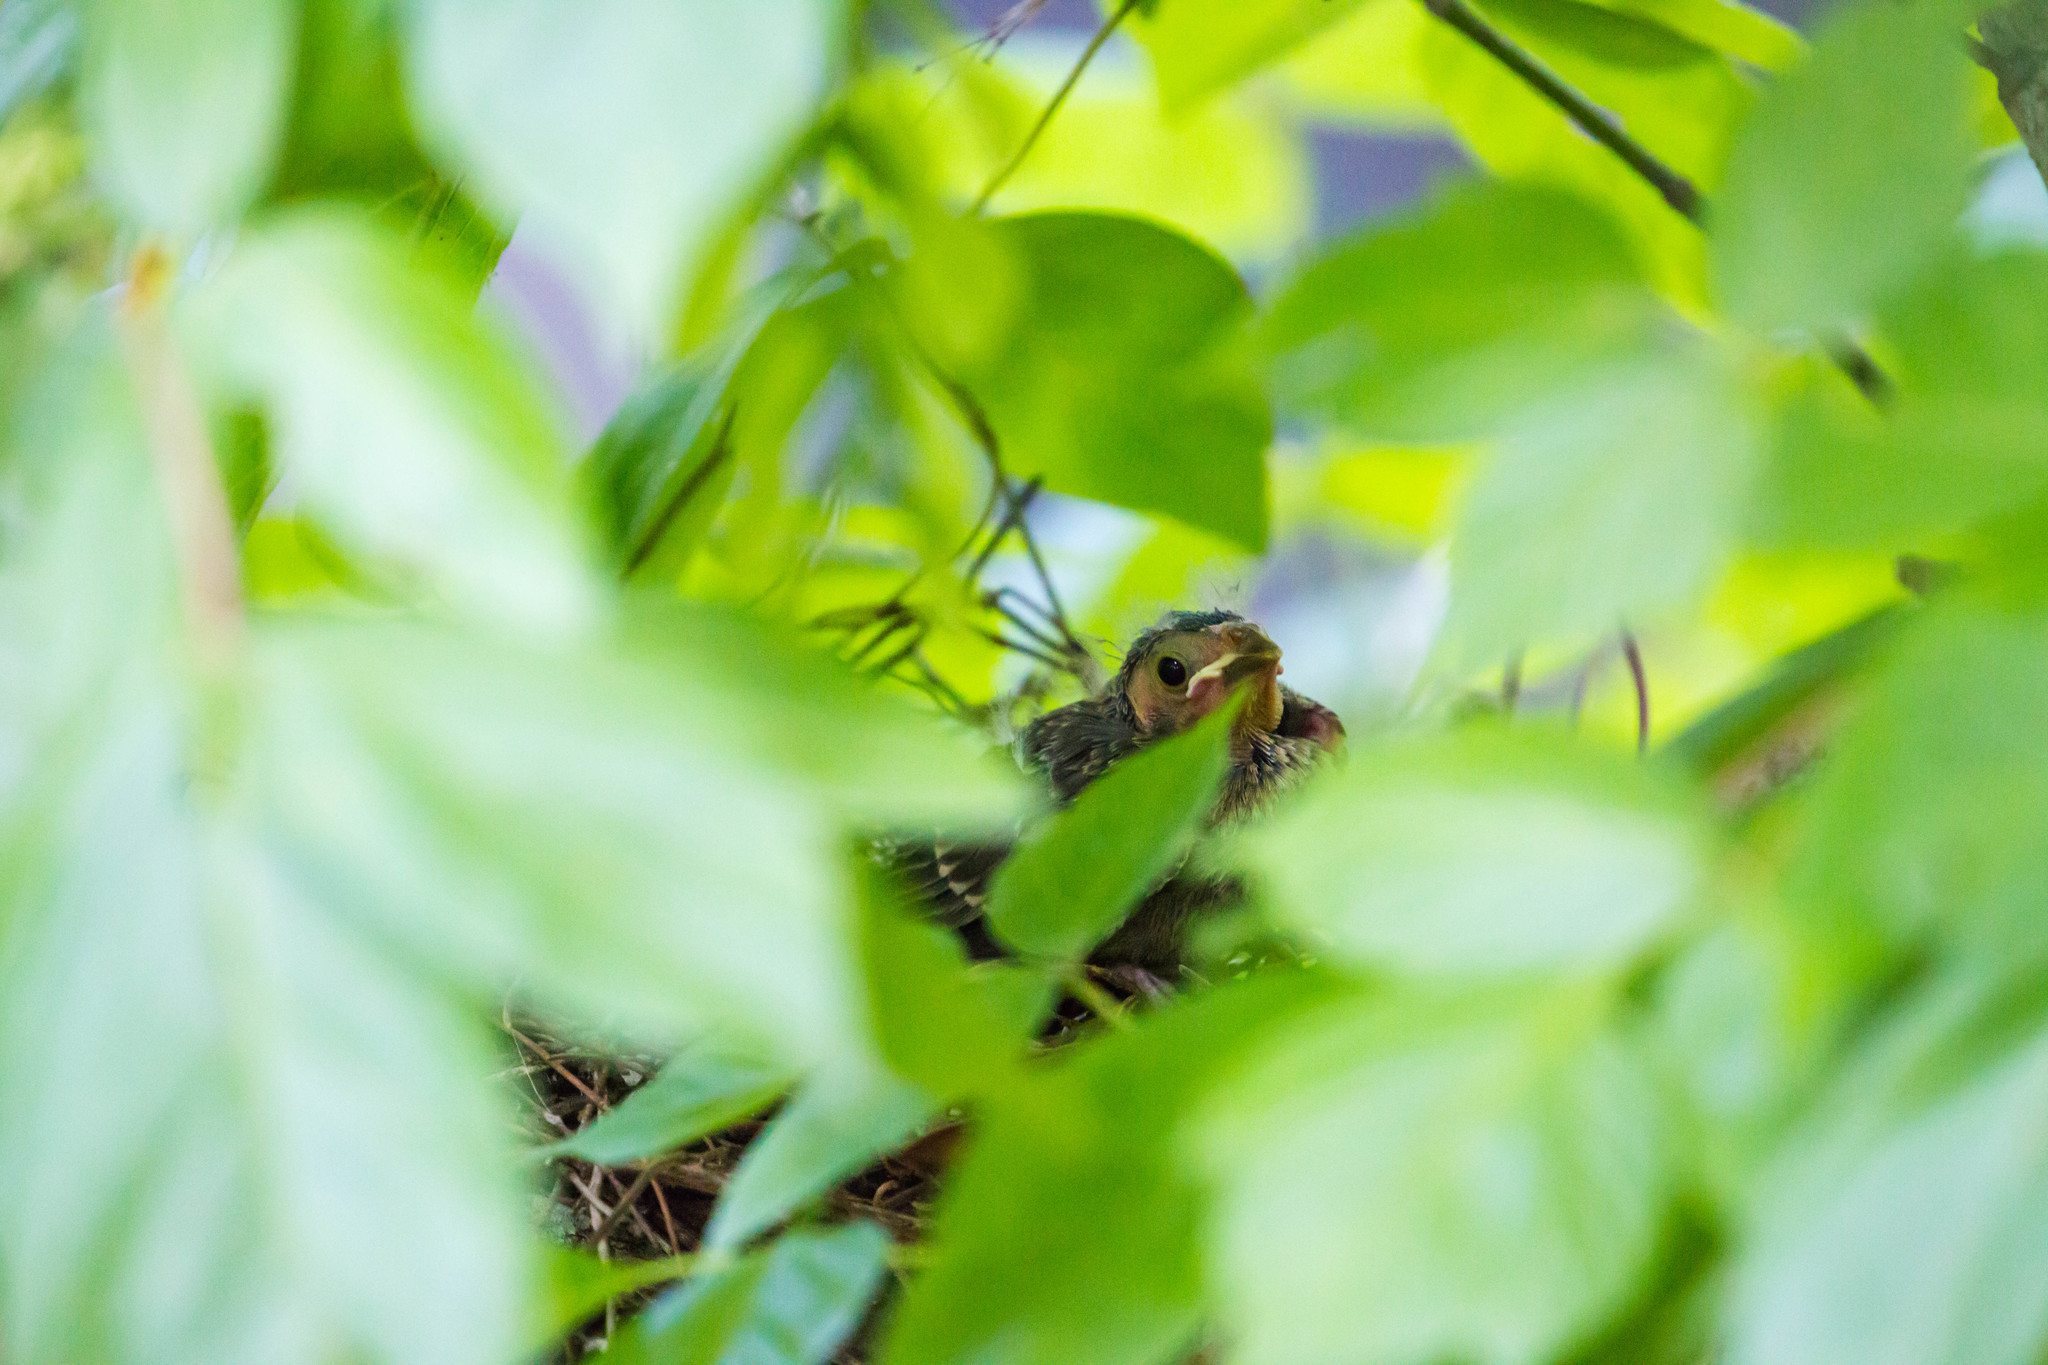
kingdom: Animalia
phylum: Chordata
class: Aves
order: Passeriformes
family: Icteridae
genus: Molothrus
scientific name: Molothrus ater
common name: Brown-headed cowbird
